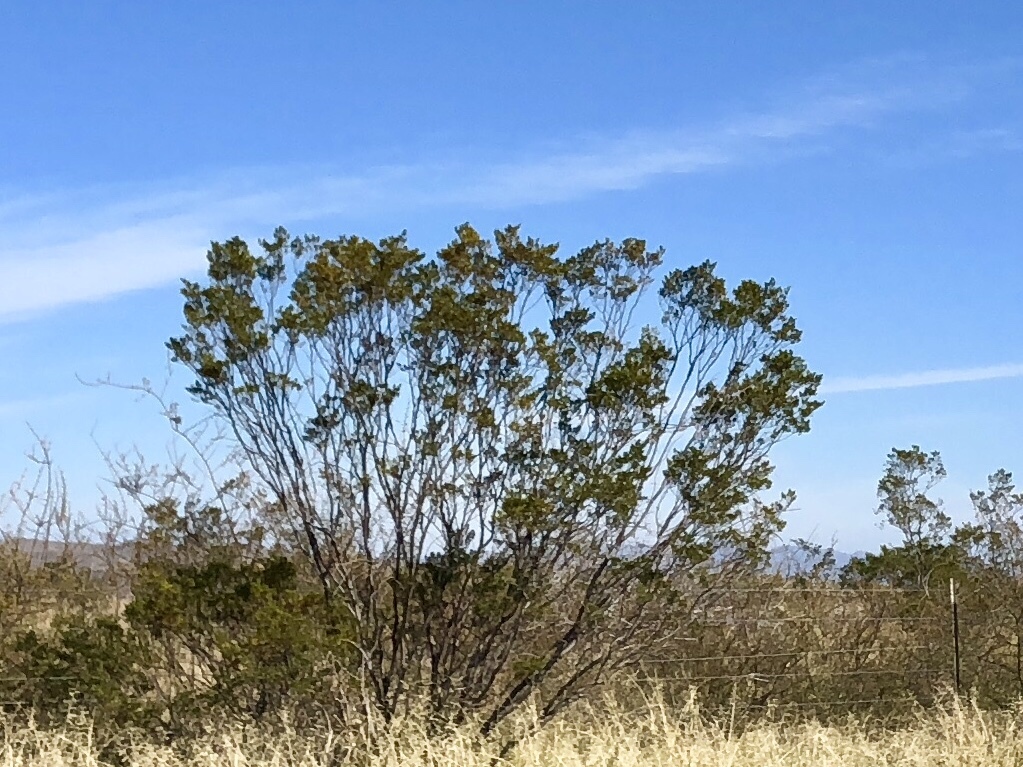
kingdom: Plantae
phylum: Tracheophyta
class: Magnoliopsida
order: Zygophyllales
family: Zygophyllaceae
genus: Larrea
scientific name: Larrea tridentata
